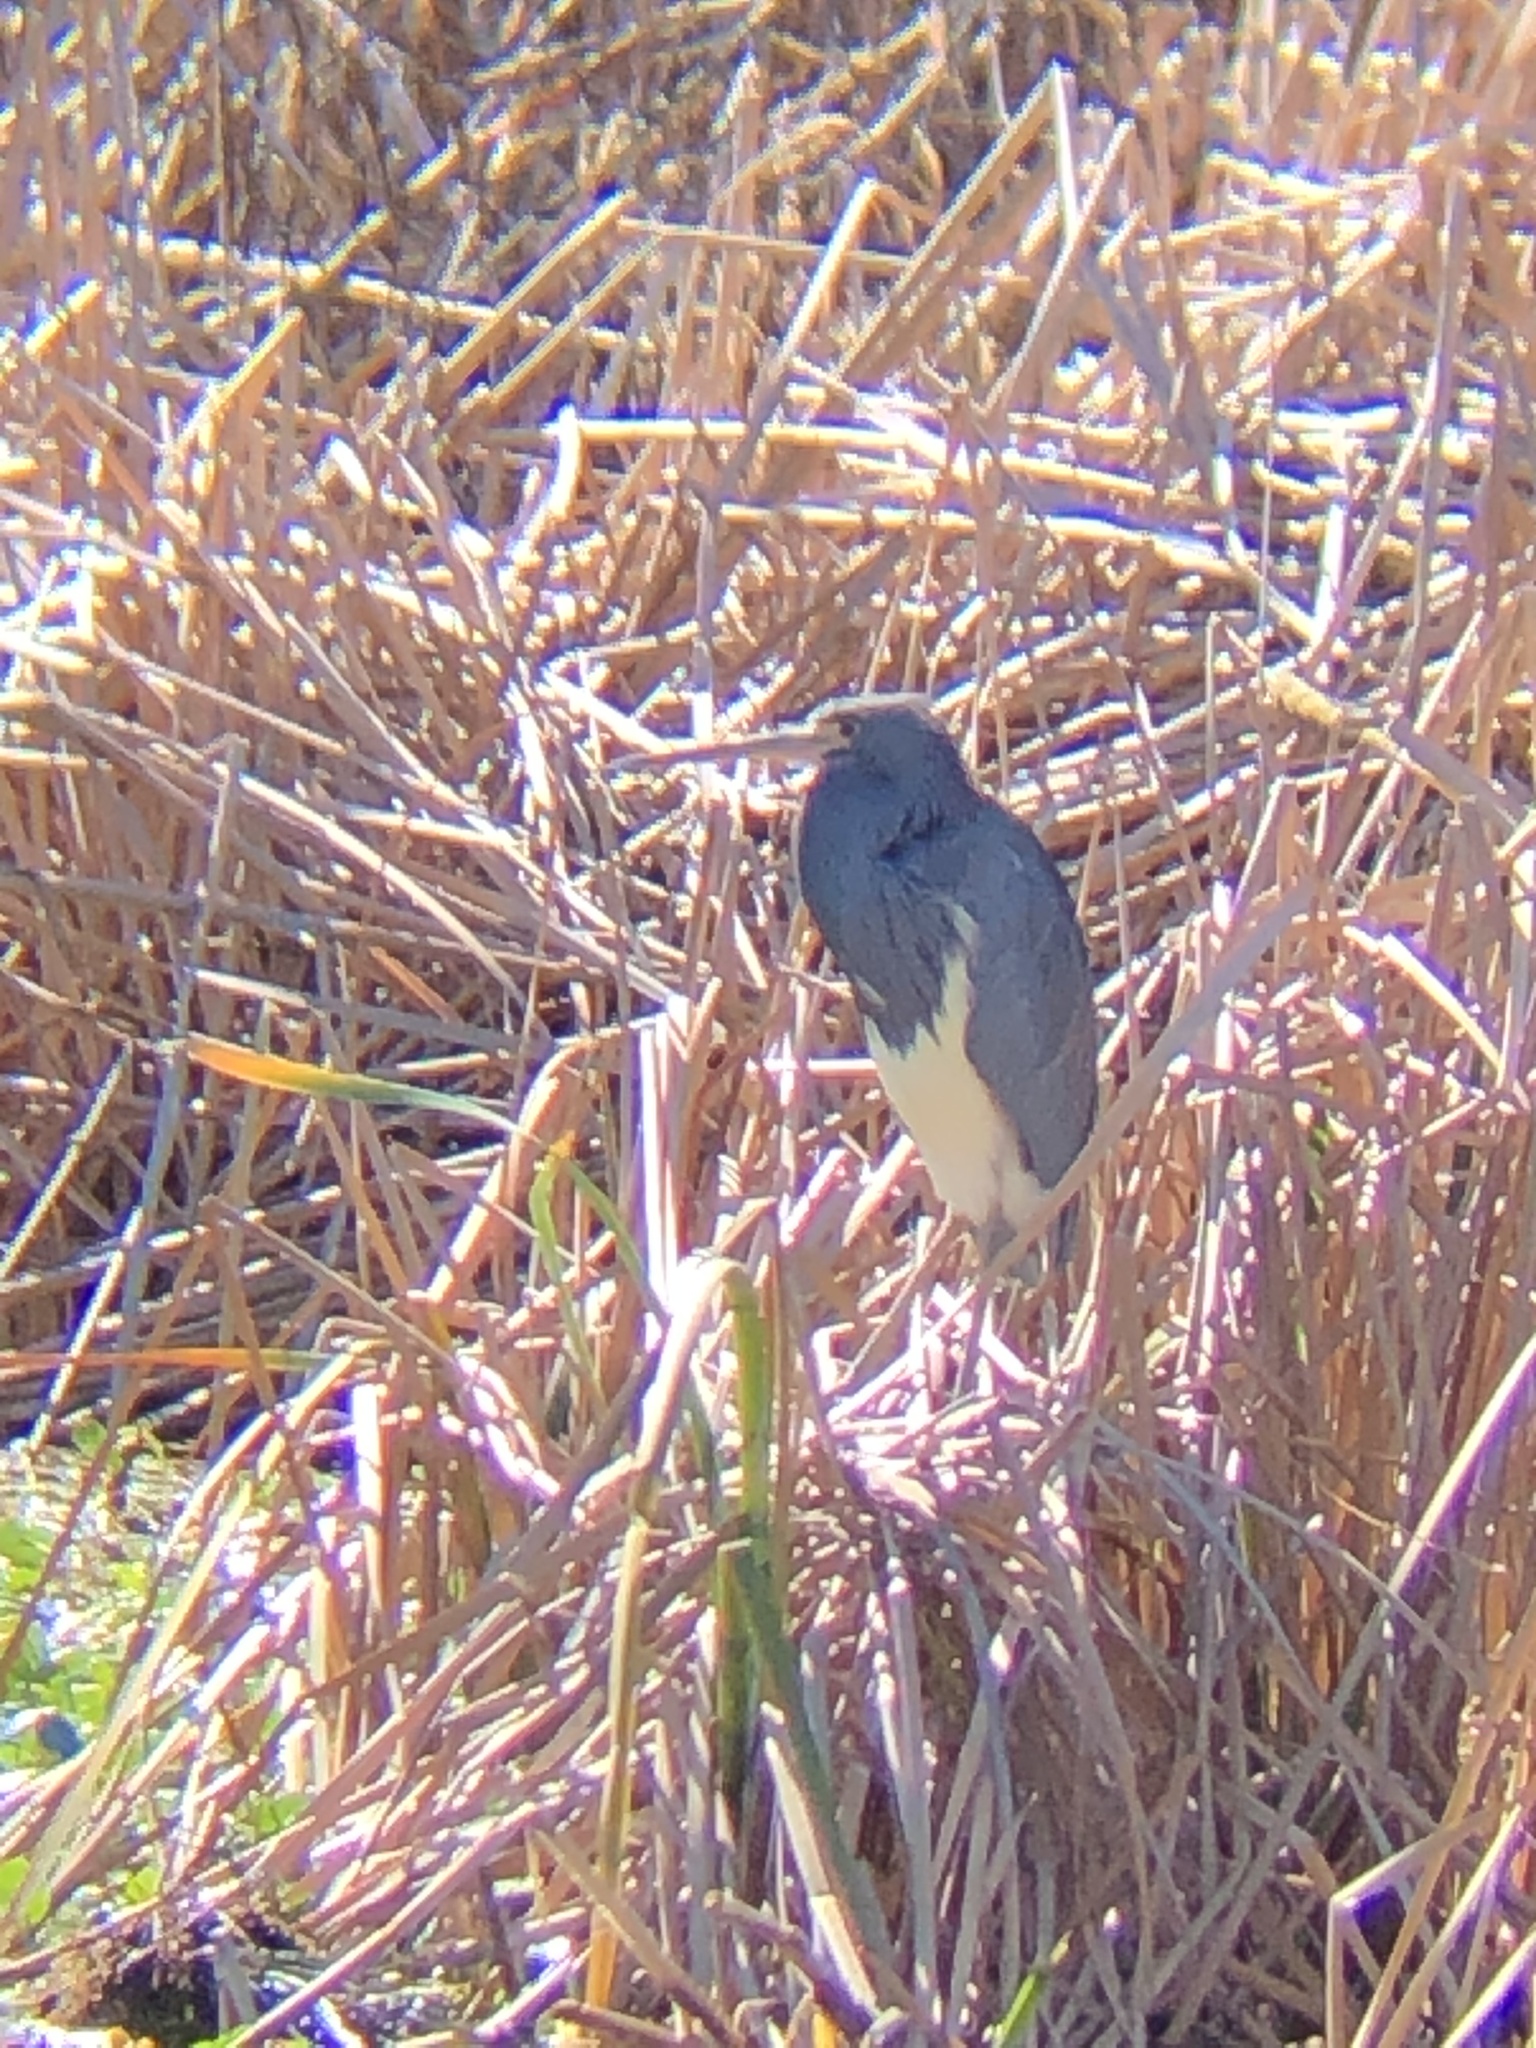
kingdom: Animalia
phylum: Chordata
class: Aves
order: Pelecaniformes
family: Ardeidae
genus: Egretta
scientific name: Egretta tricolor
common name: Tricolored heron
